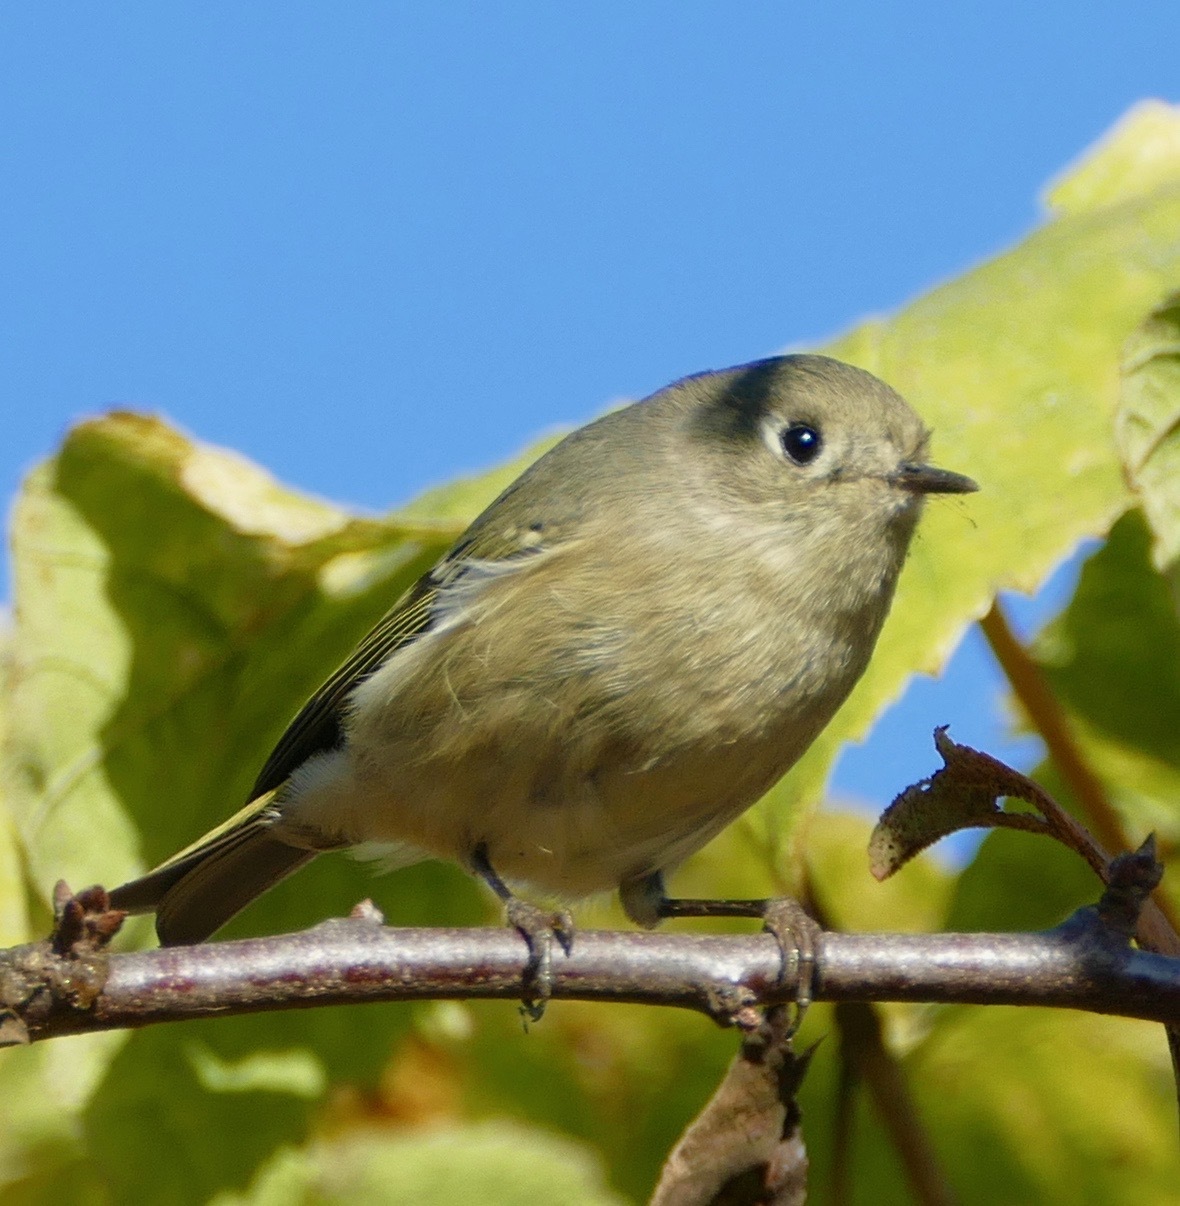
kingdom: Animalia
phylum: Chordata
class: Aves
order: Passeriformes
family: Regulidae
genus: Regulus
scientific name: Regulus calendula
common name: Ruby-crowned kinglet
